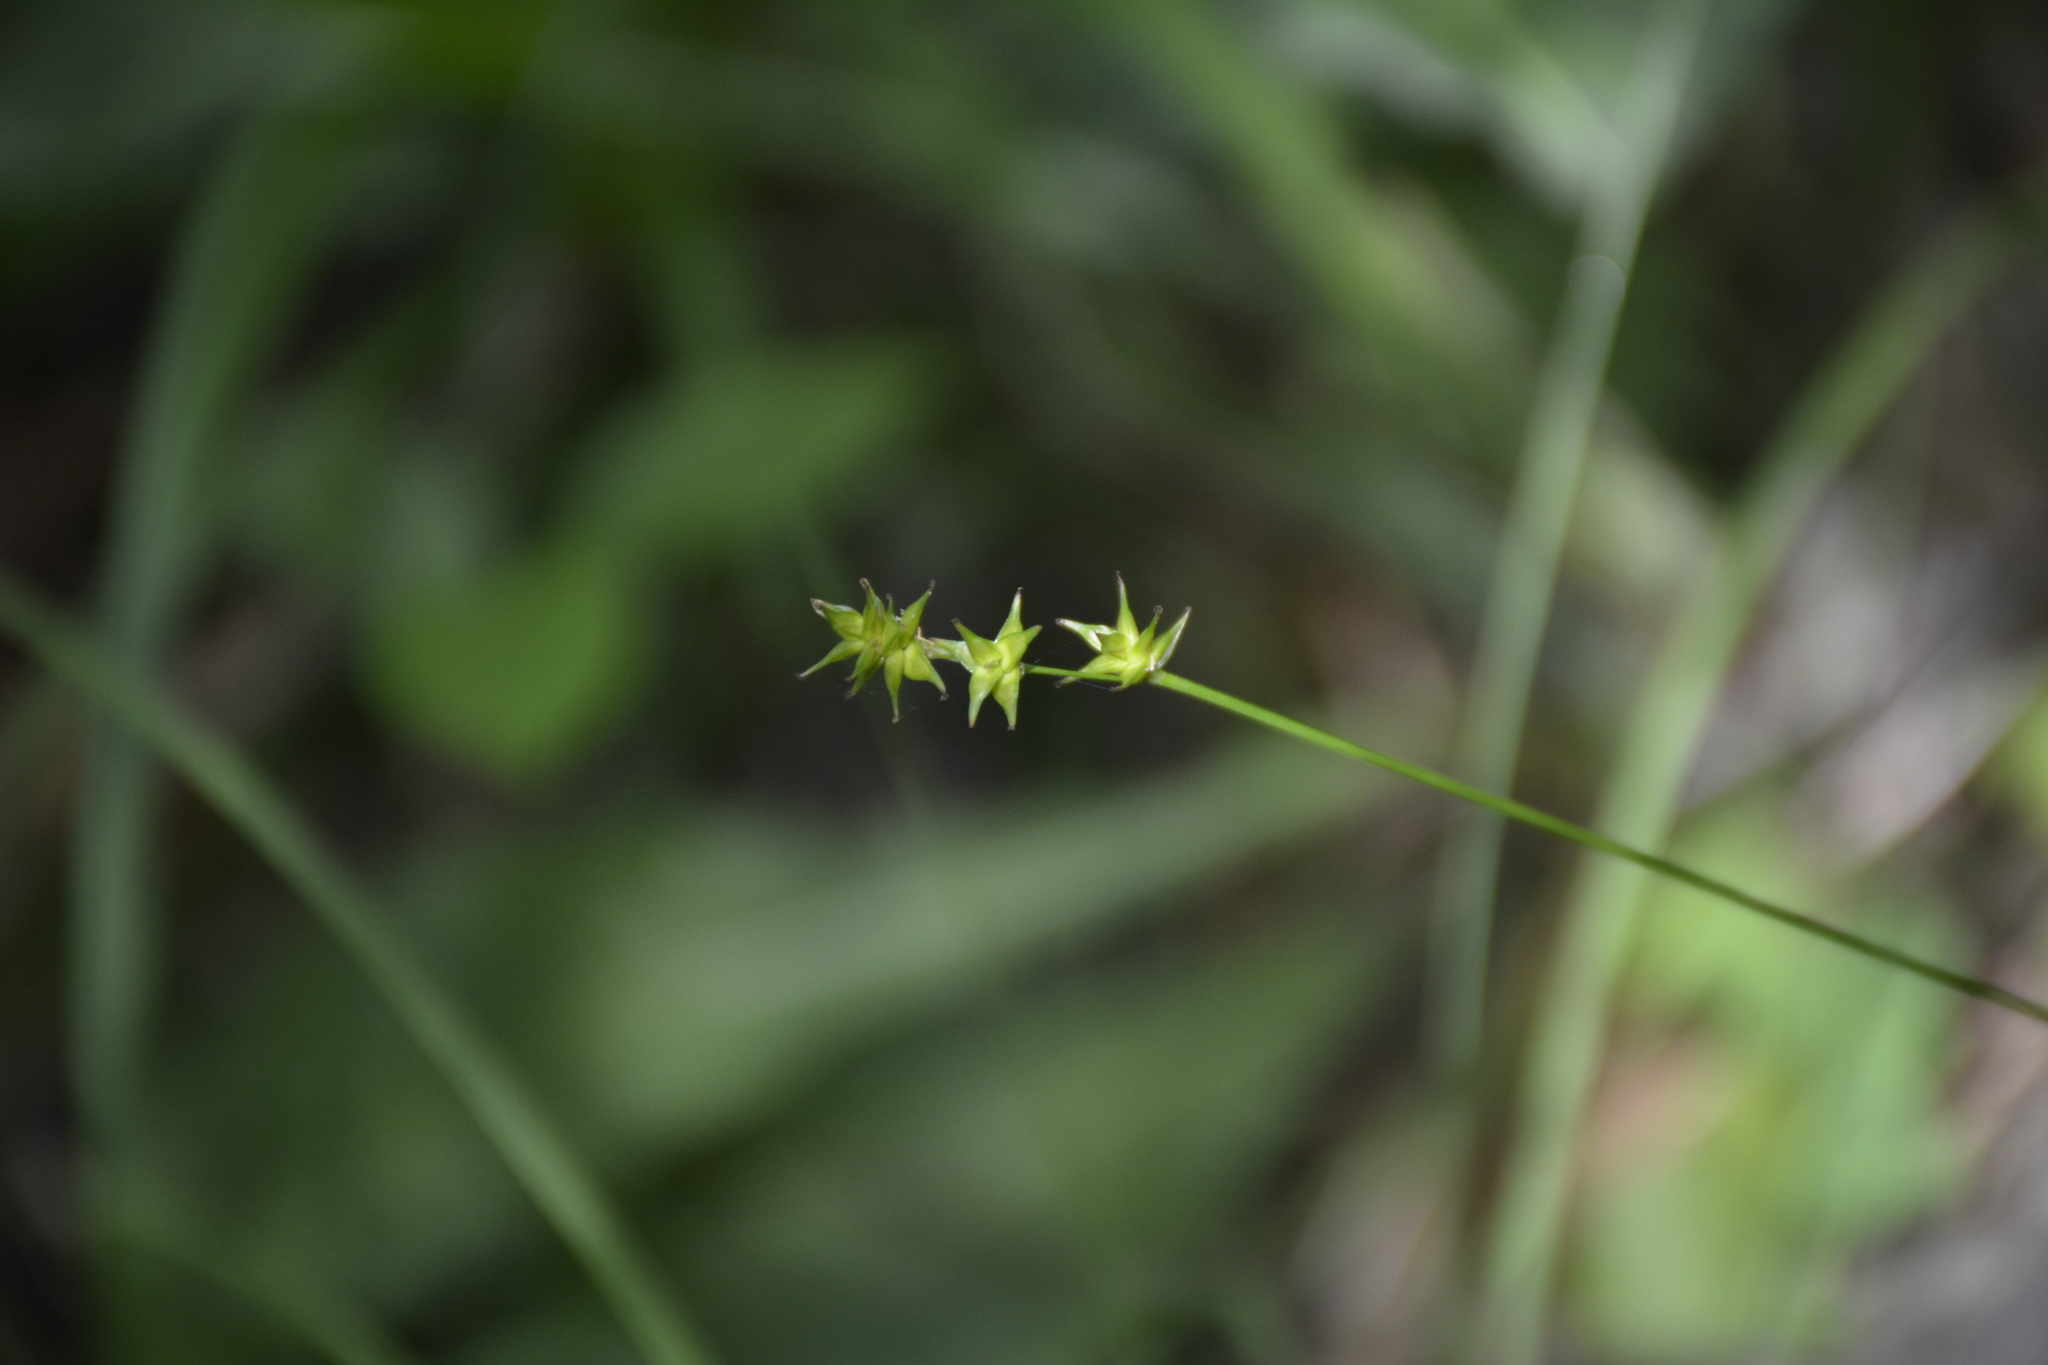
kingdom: Plantae
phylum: Tracheophyta
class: Liliopsida
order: Poales
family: Cyperaceae
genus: Carex
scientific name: Carex echinata
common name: Star sedge
